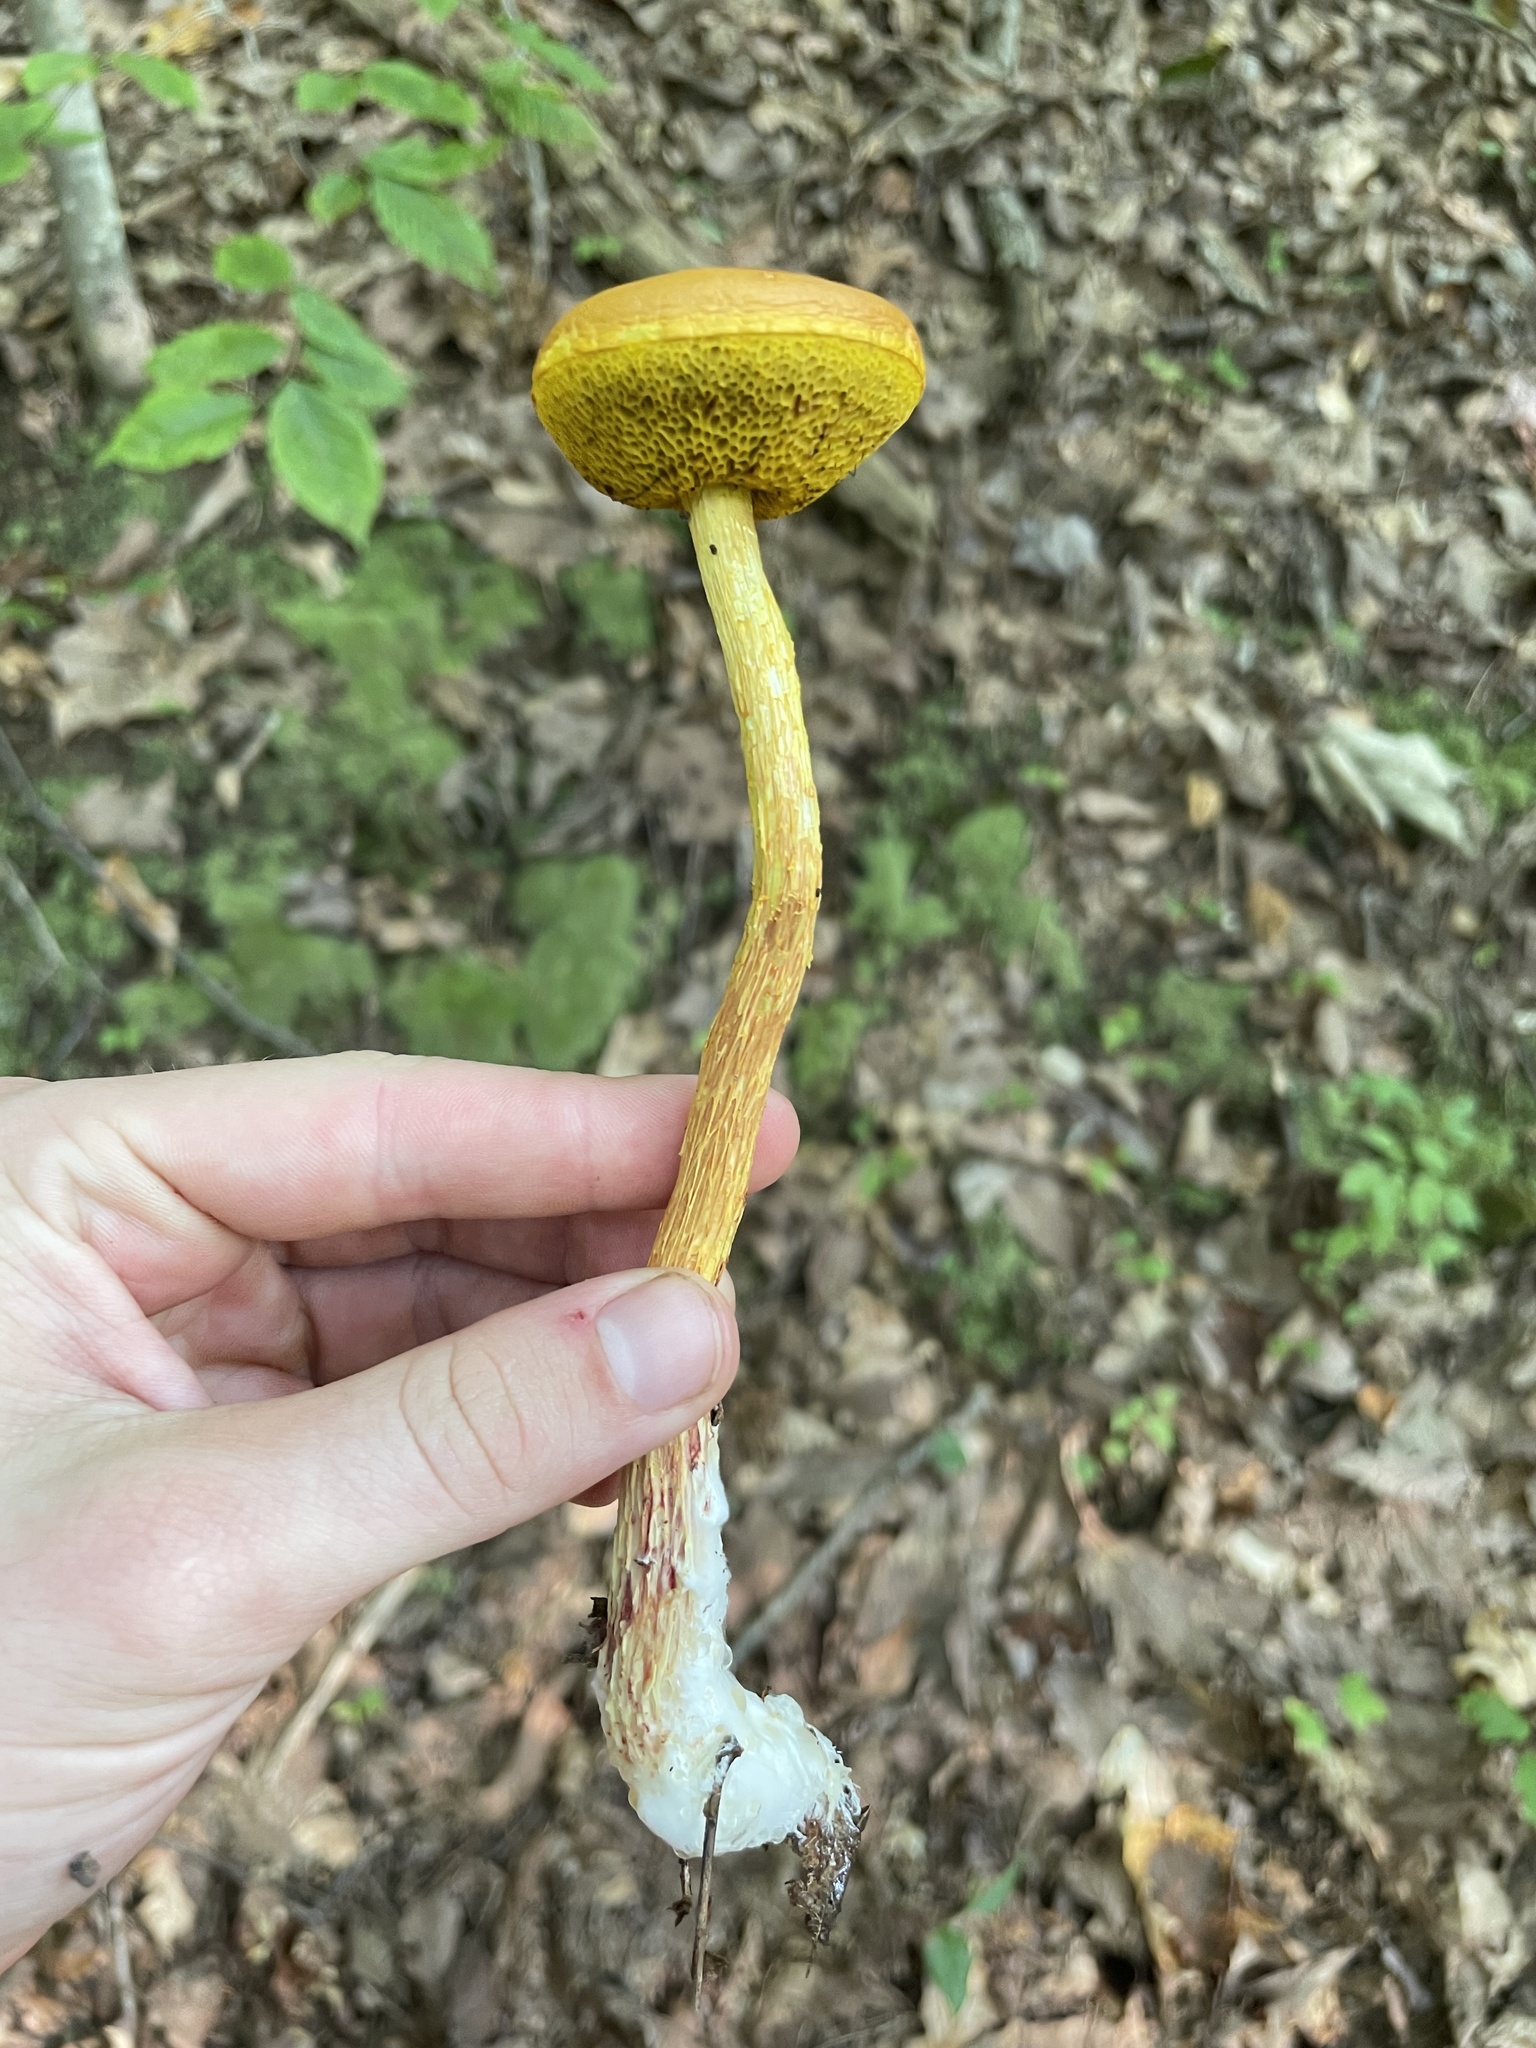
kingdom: Fungi
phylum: Basidiomycota
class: Agaricomycetes
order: Boletales
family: Boletaceae
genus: Aureoboletus
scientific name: Aureoboletus betula
